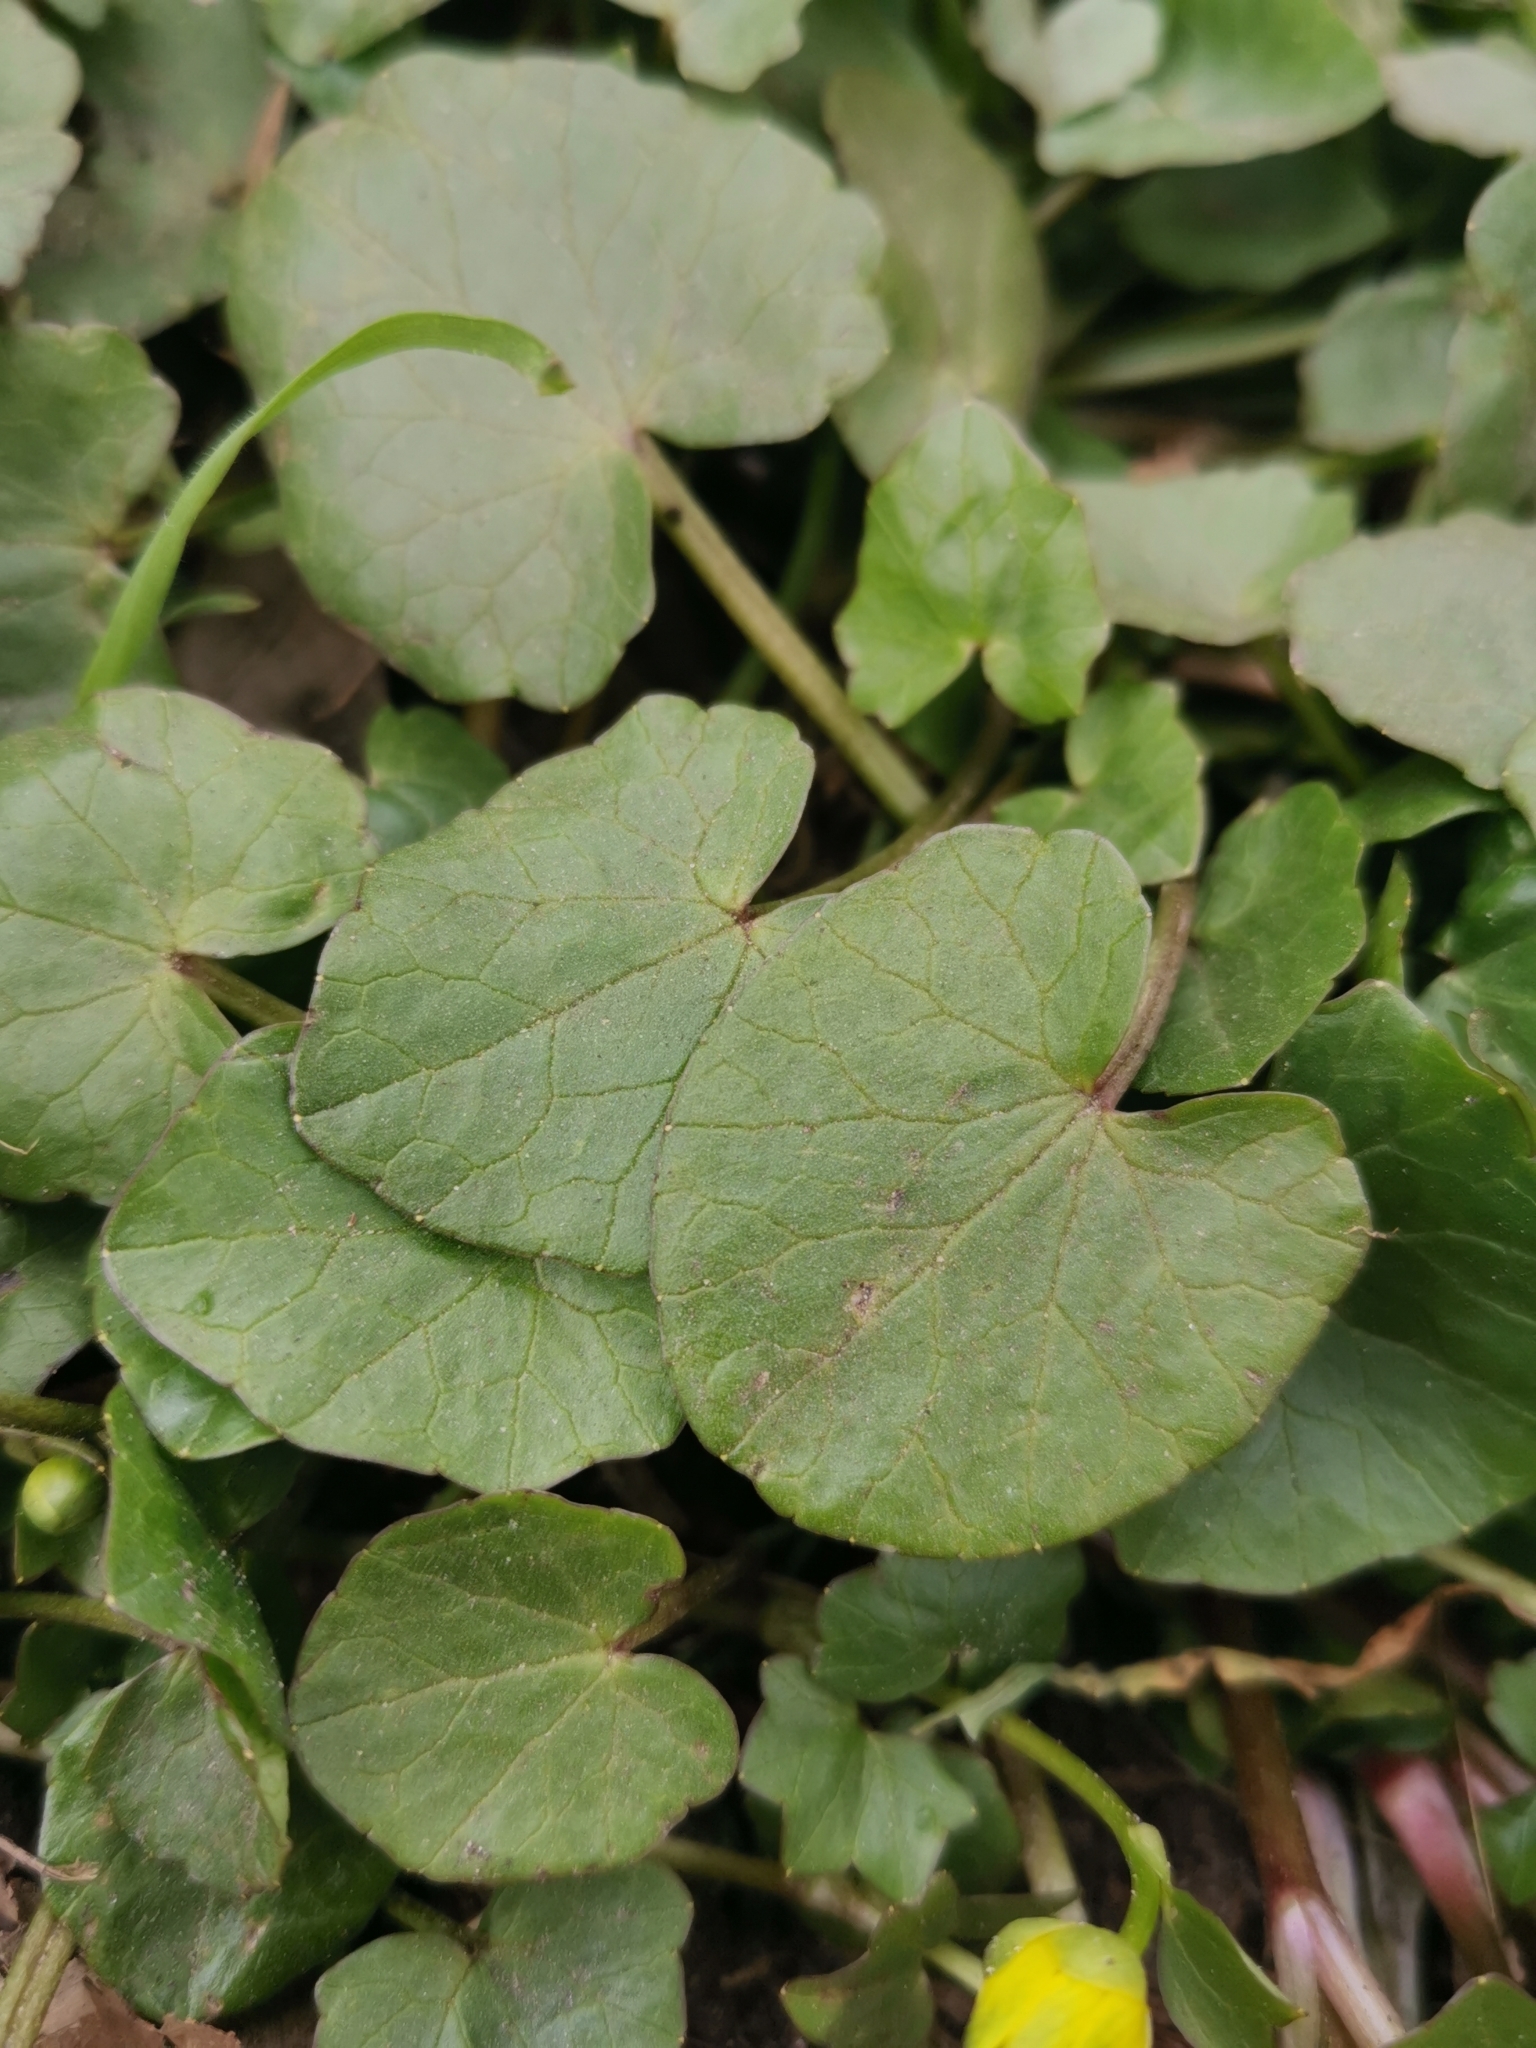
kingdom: Plantae
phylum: Tracheophyta
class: Magnoliopsida
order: Ranunculales
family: Ranunculaceae
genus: Ficaria
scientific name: Ficaria verna
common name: Lesser celandine
